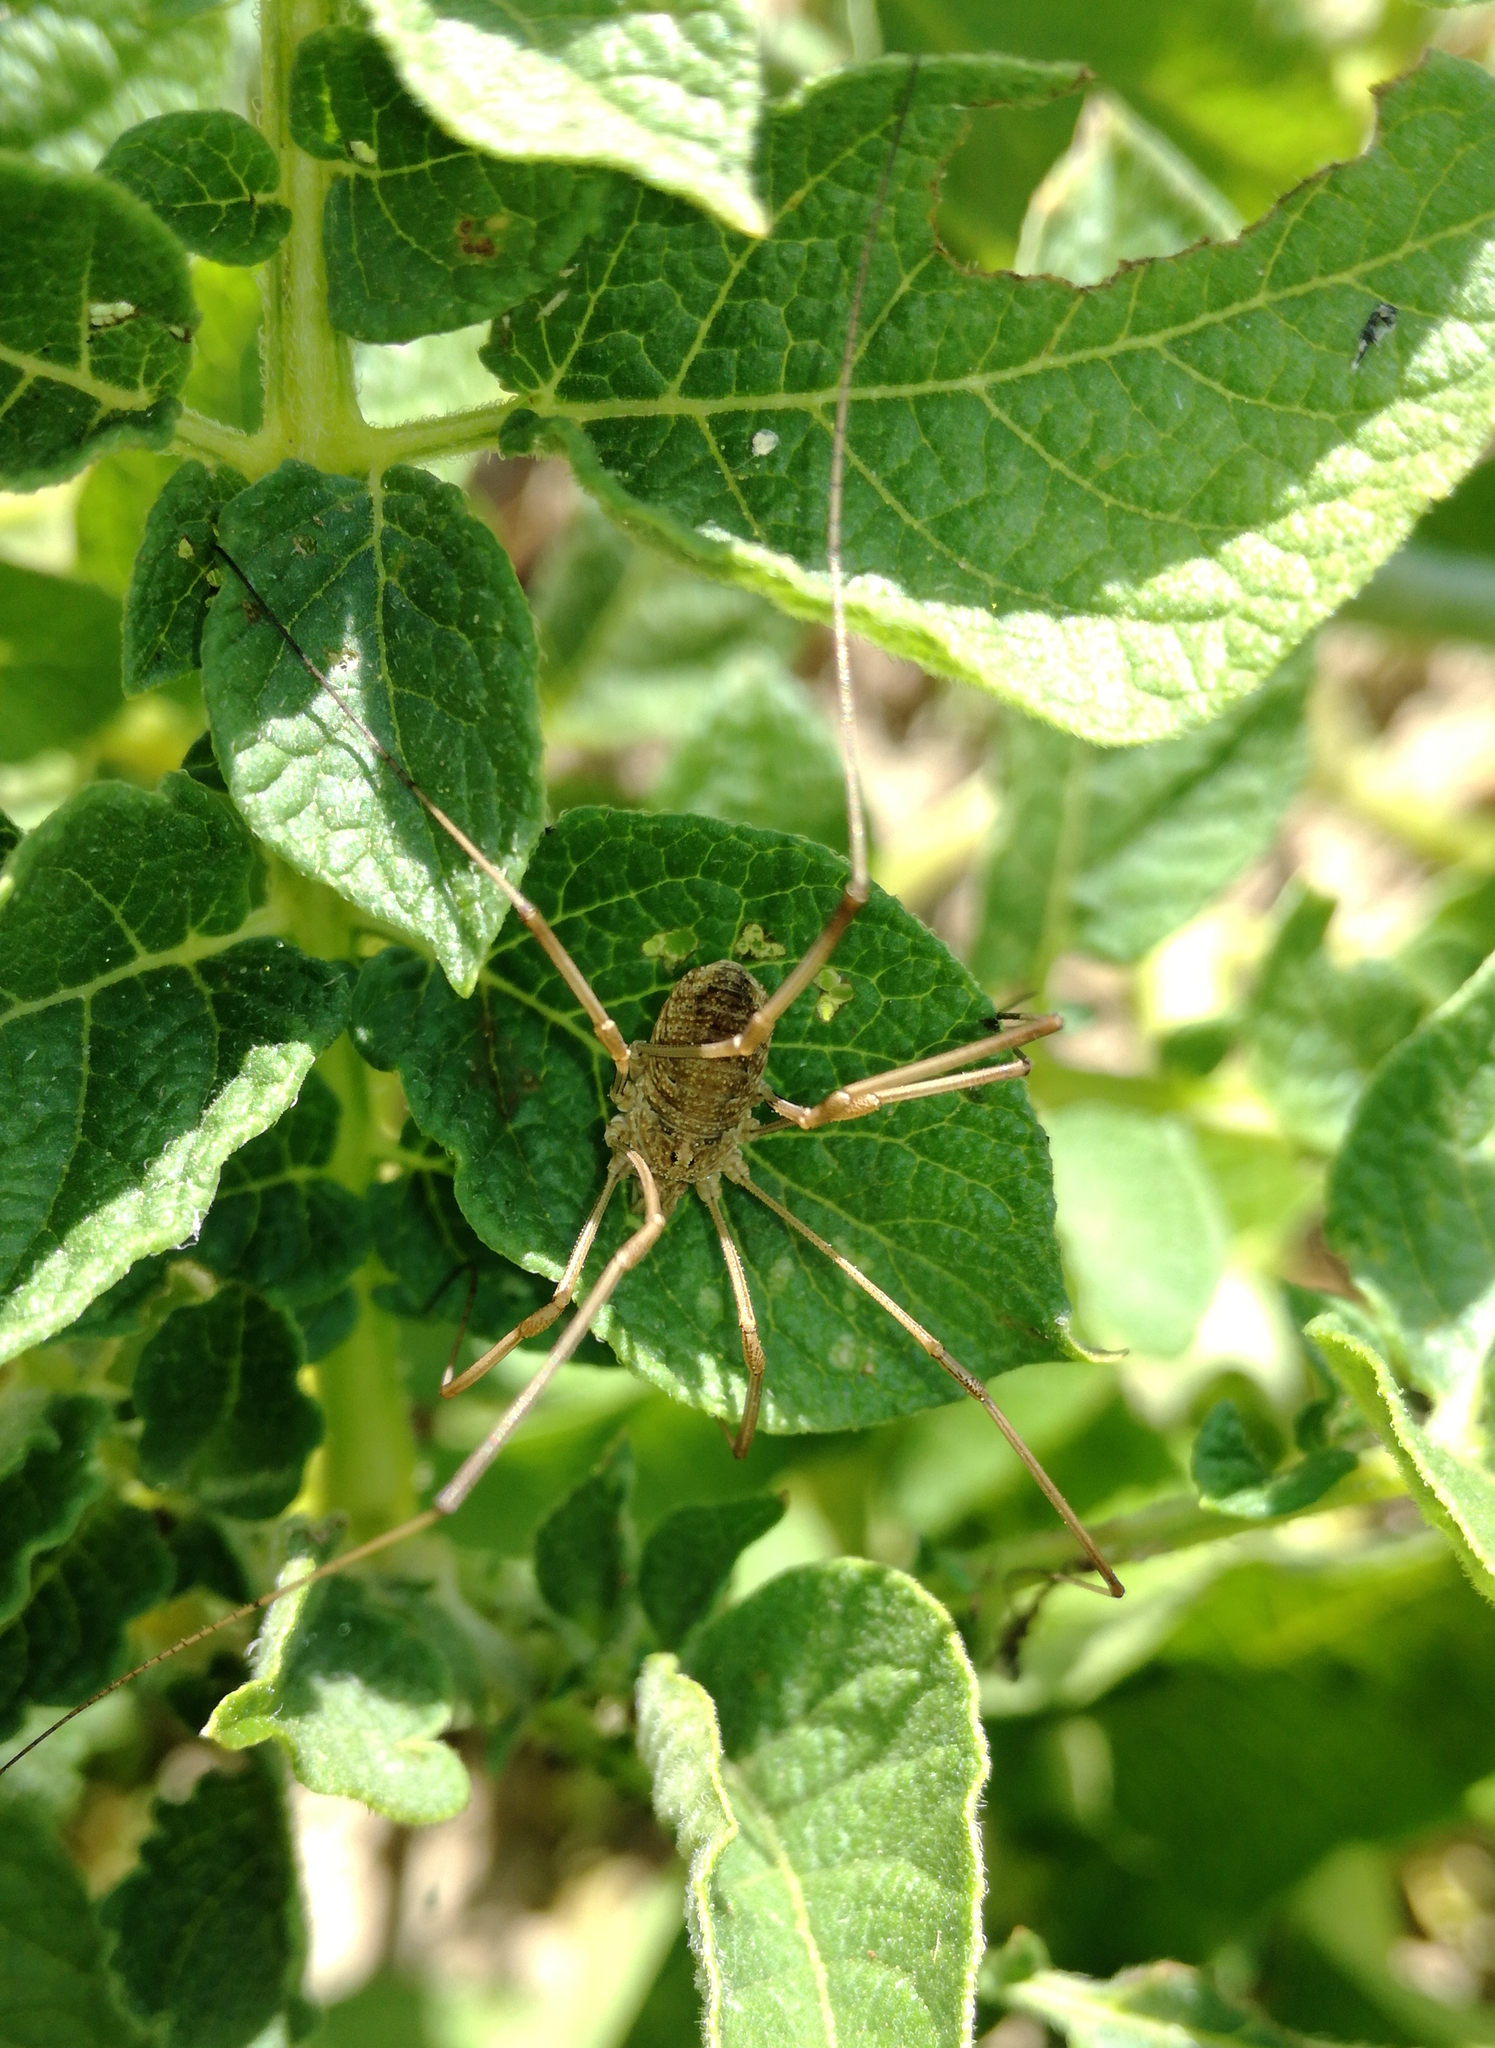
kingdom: Animalia
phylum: Arthropoda
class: Arachnida
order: Opiliones
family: Phalangiidae
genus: Phalangium
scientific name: Phalangium opilio
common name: Daddy longleg
